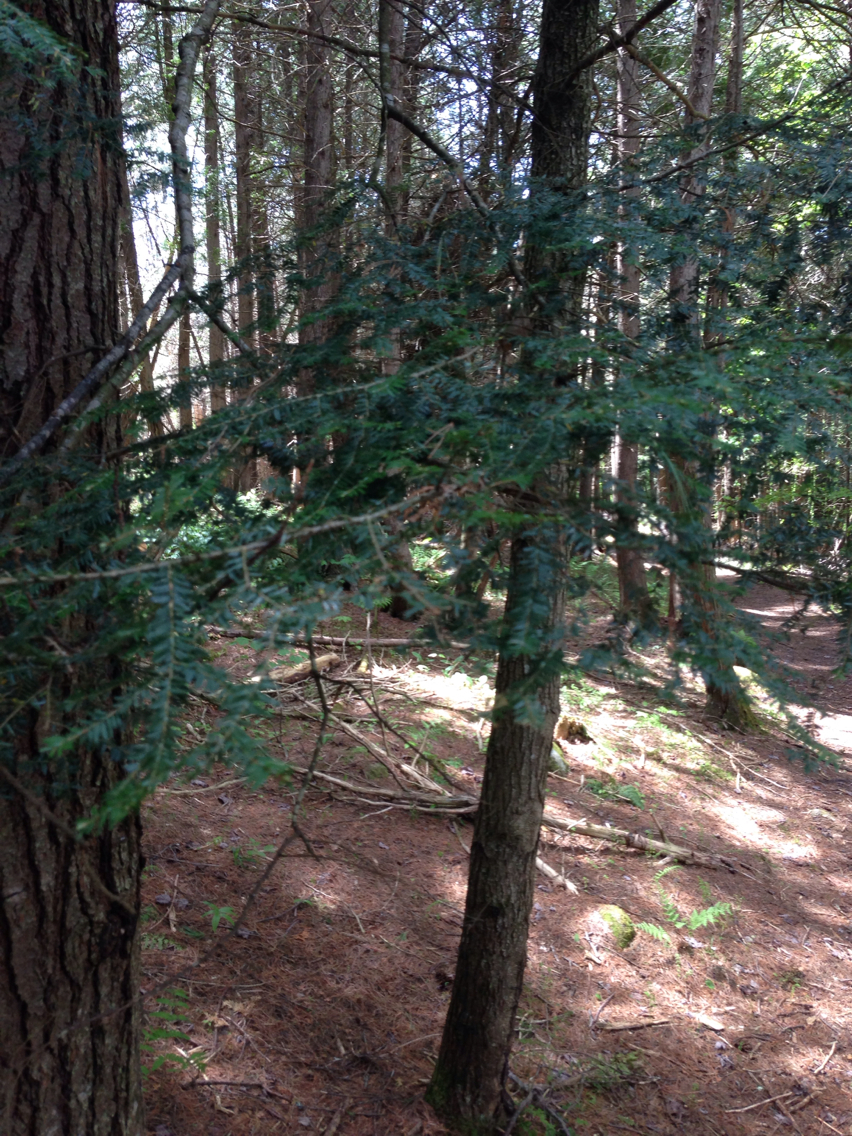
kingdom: Plantae
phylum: Tracheophyta
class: Pinopsida
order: Pinales
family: Pinaceae
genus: Tsuga
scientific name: Tsuga canadensis
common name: Eastern hemlock
